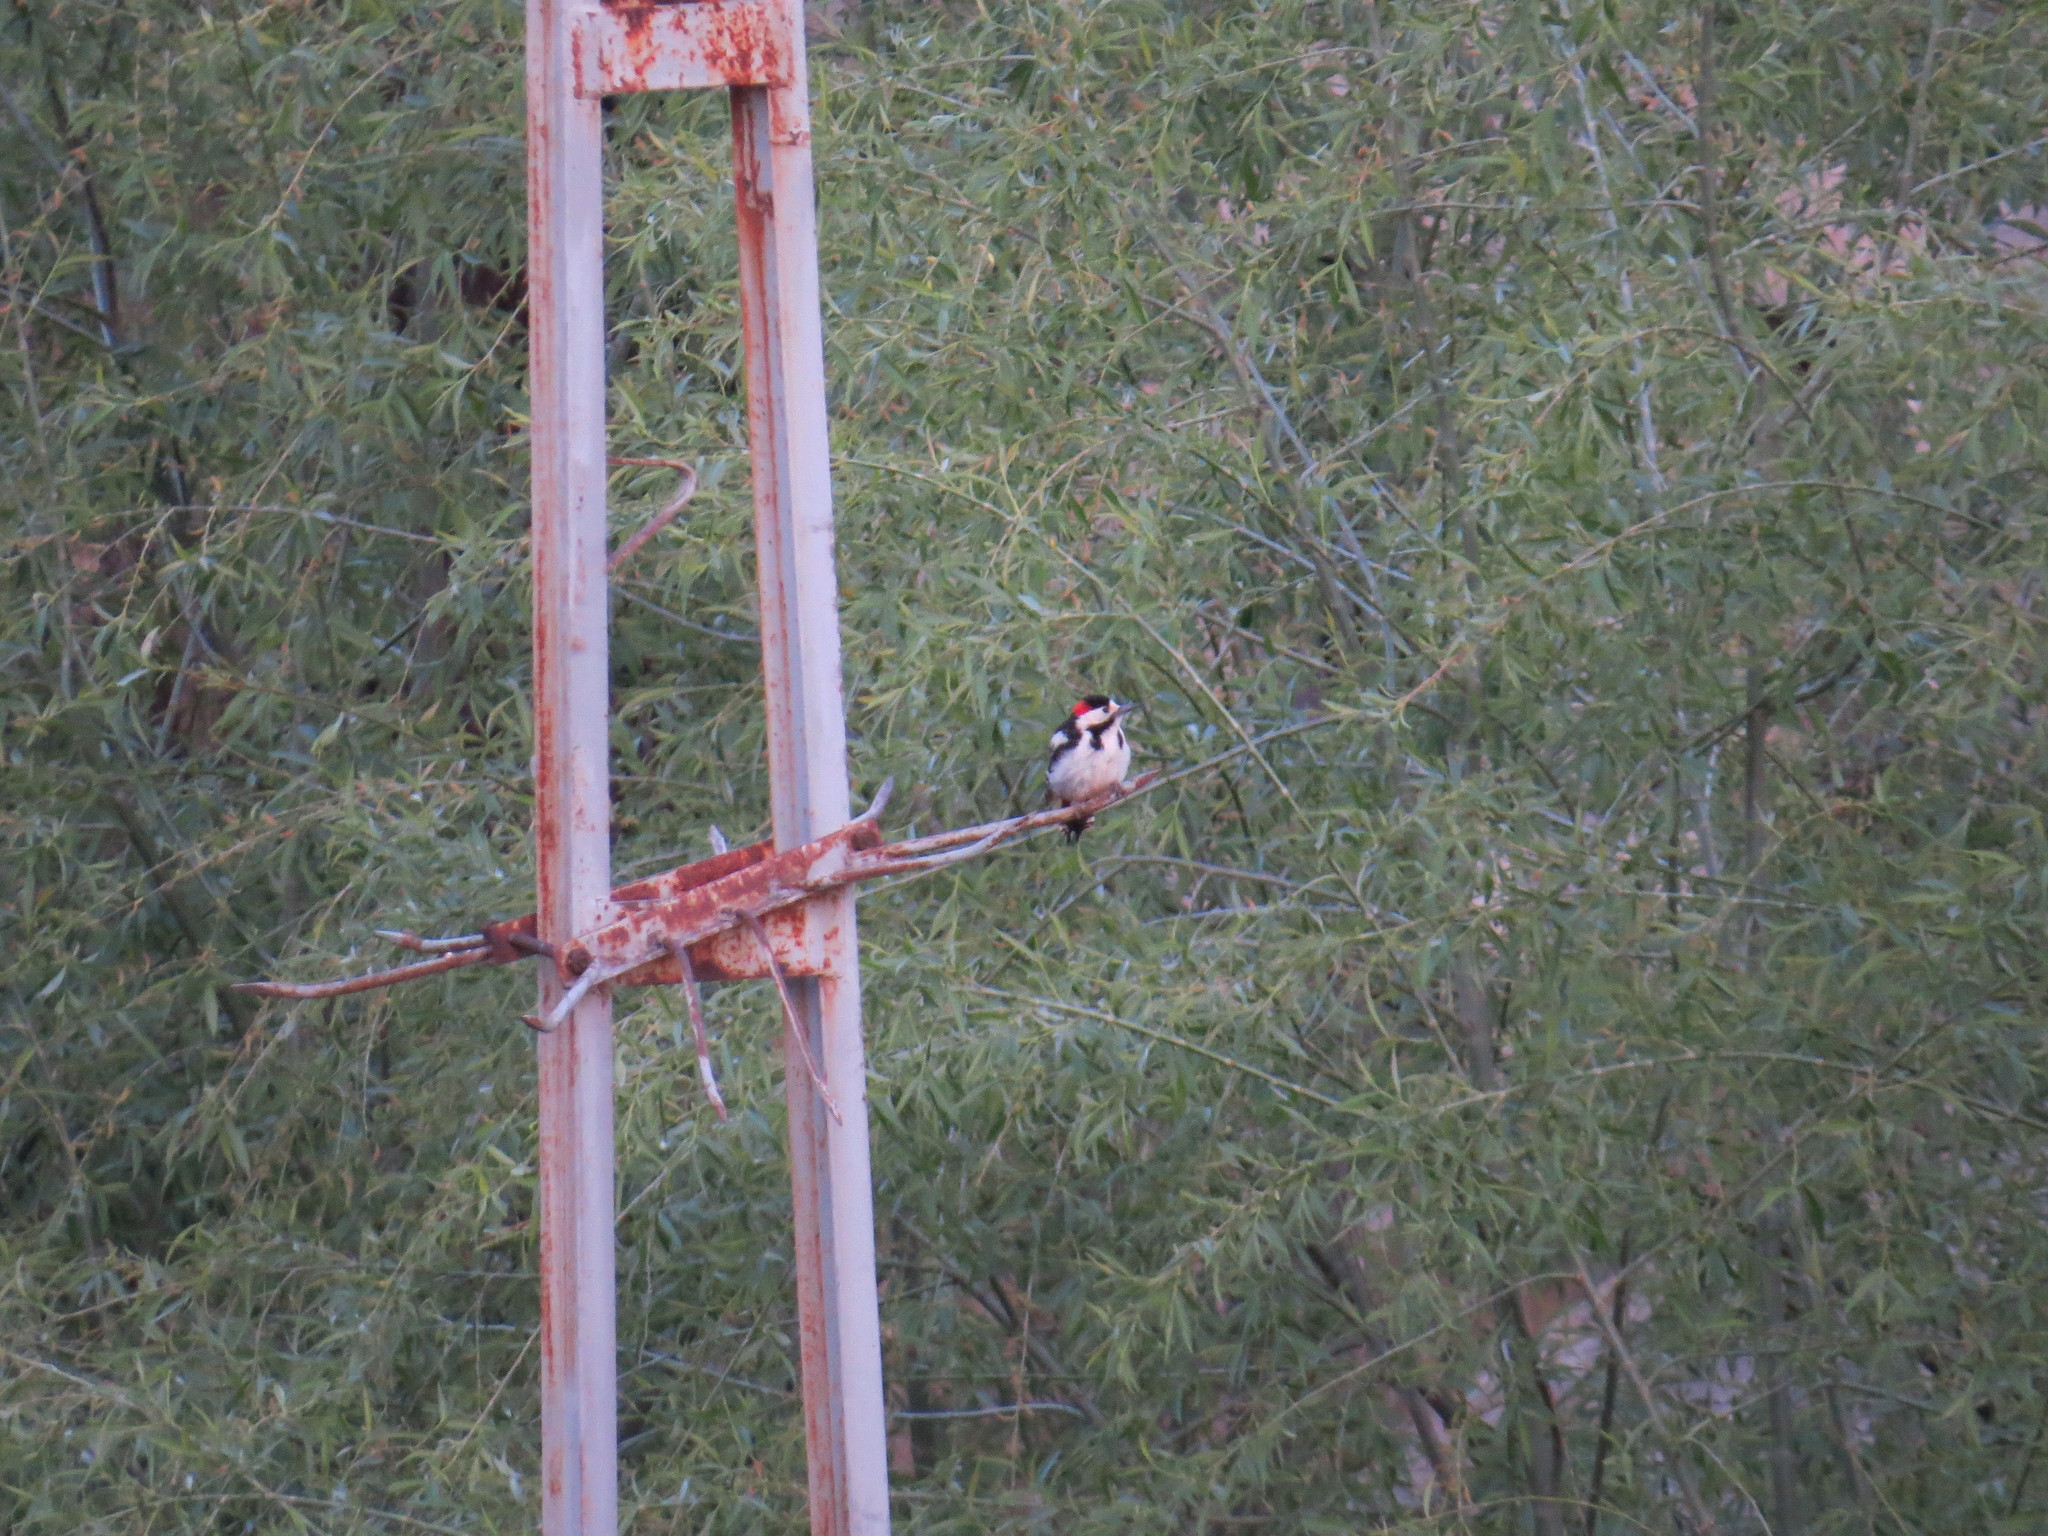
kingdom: Animalia
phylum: Chordata
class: Aves
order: Piciformes
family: Picidae
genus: Dendrocopos
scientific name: Dendrocopos syriacus
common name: Syrian woodpecker
